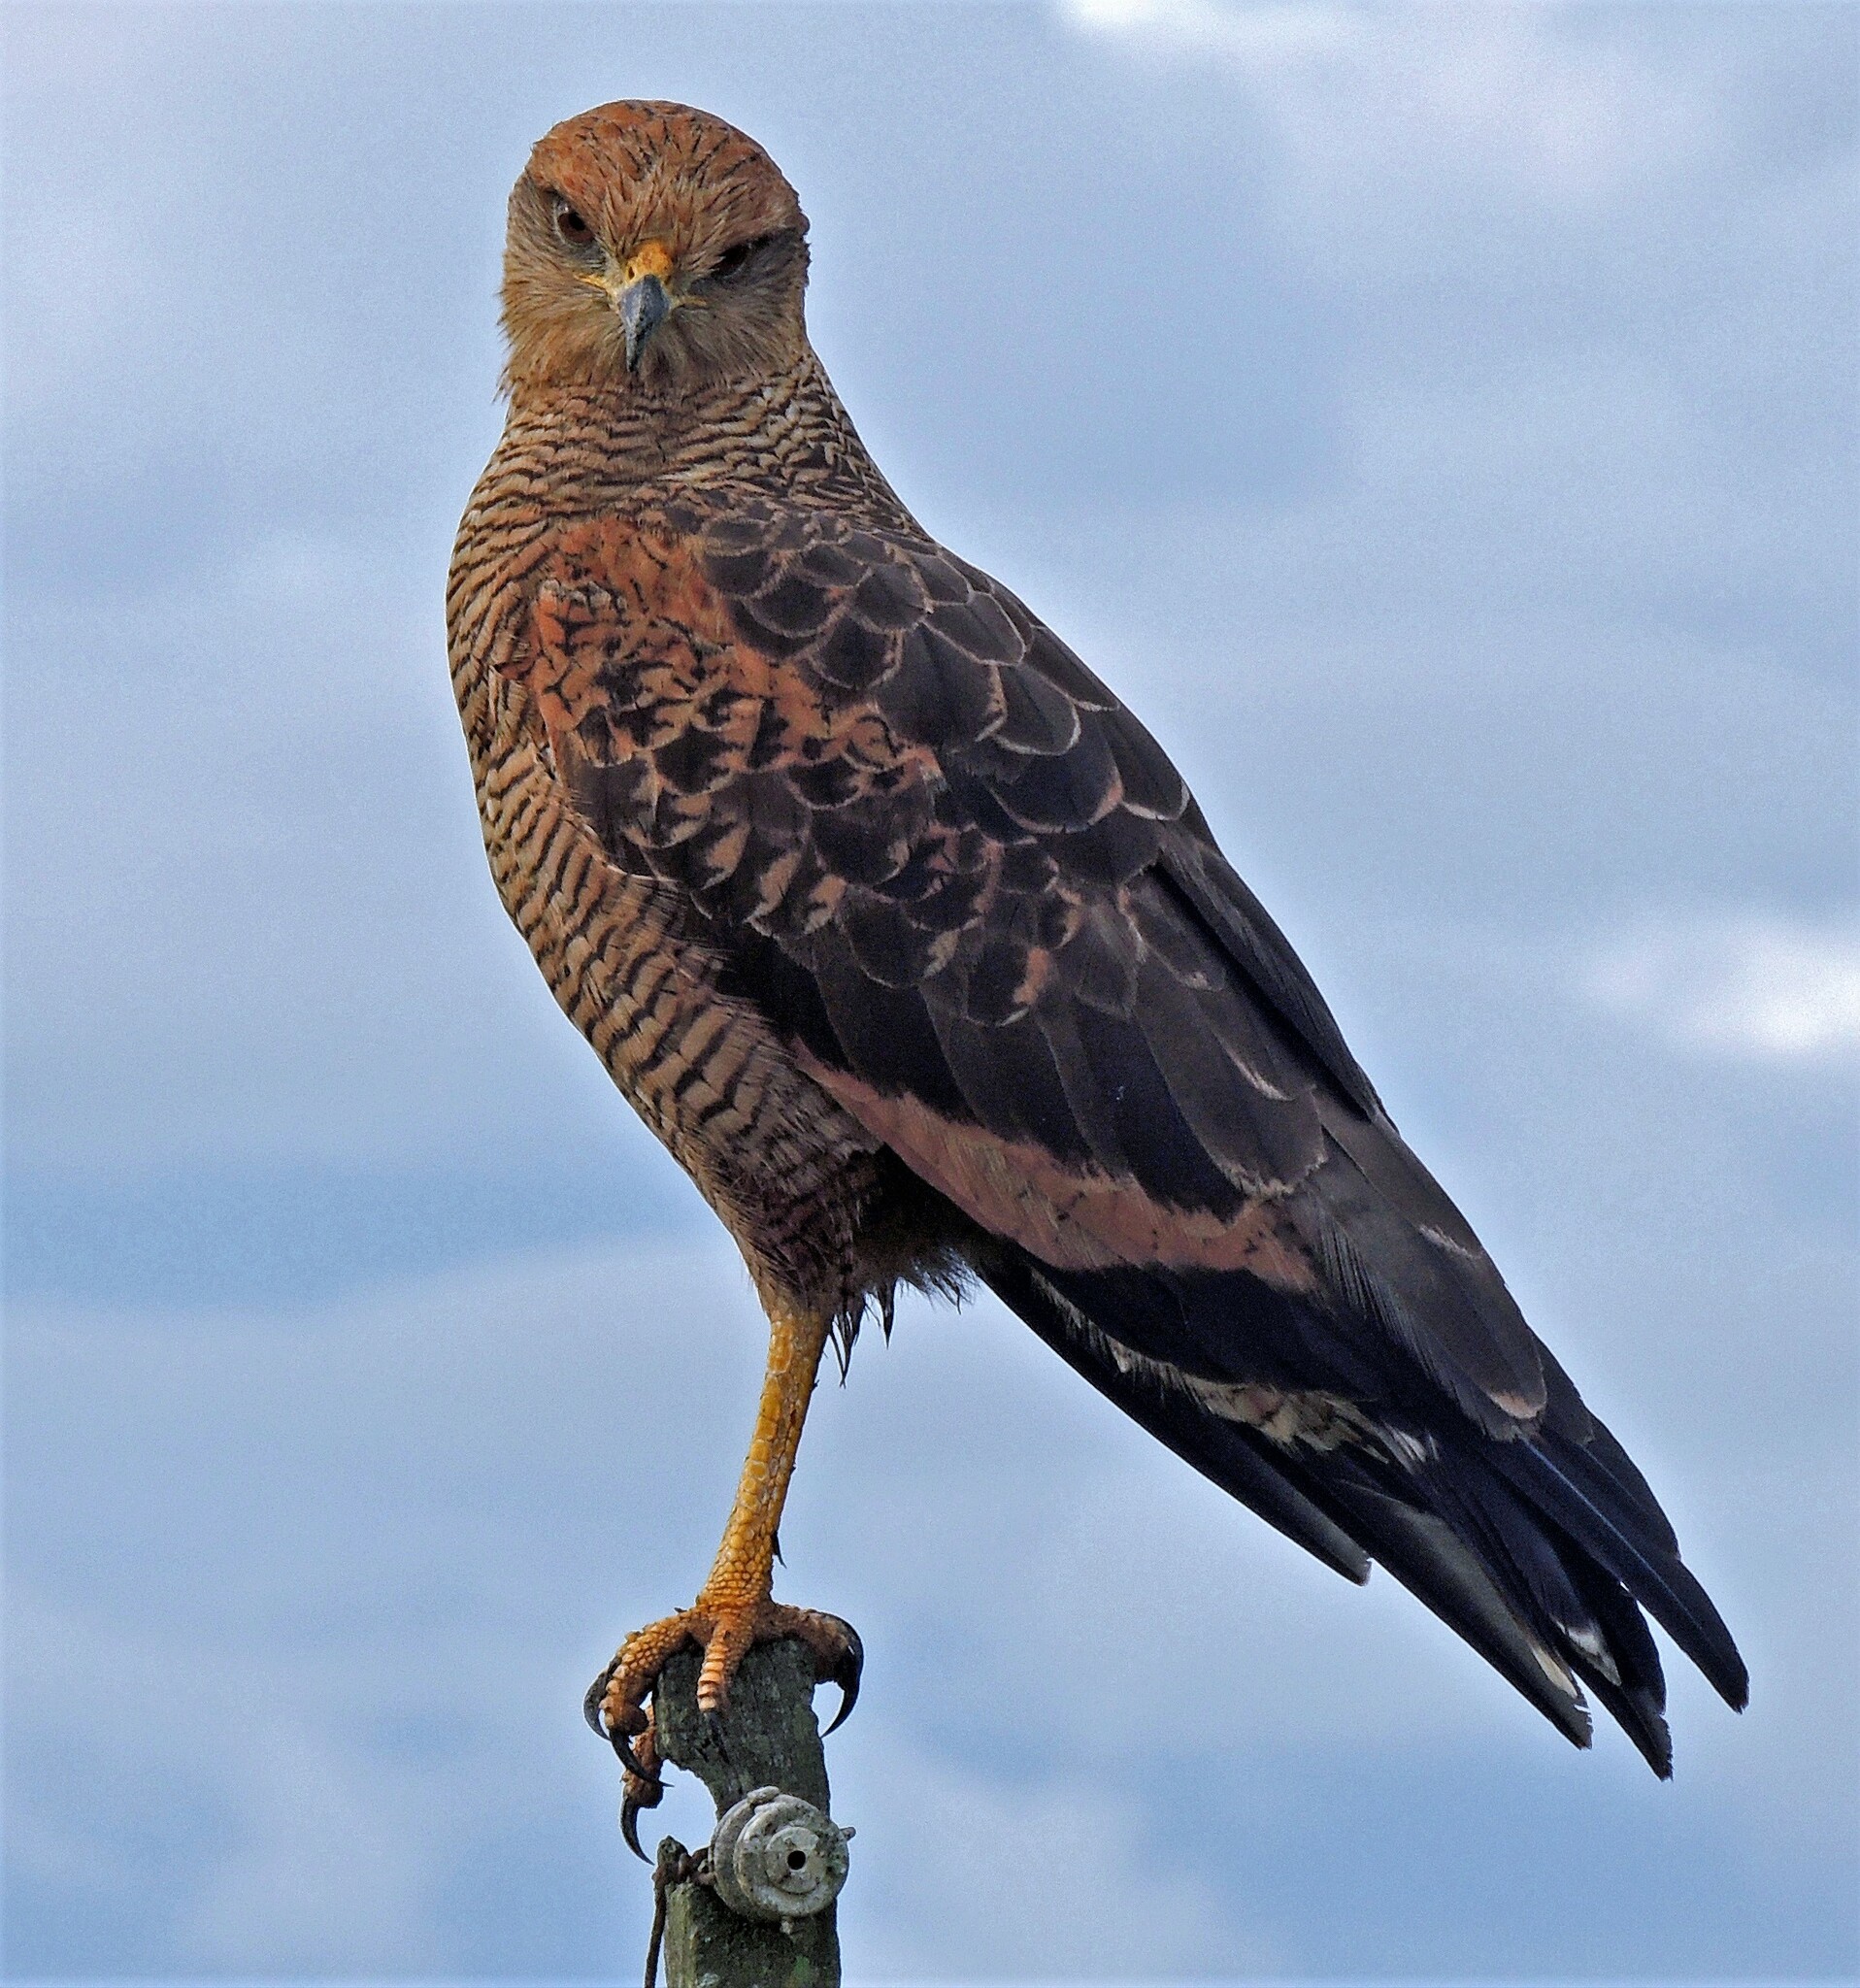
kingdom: Animalia
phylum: Chordata
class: Aves
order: Accipitriformes
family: Accipitridae
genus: Buteogallus
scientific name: Buteogallus meridionalis
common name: Savanna hawk
